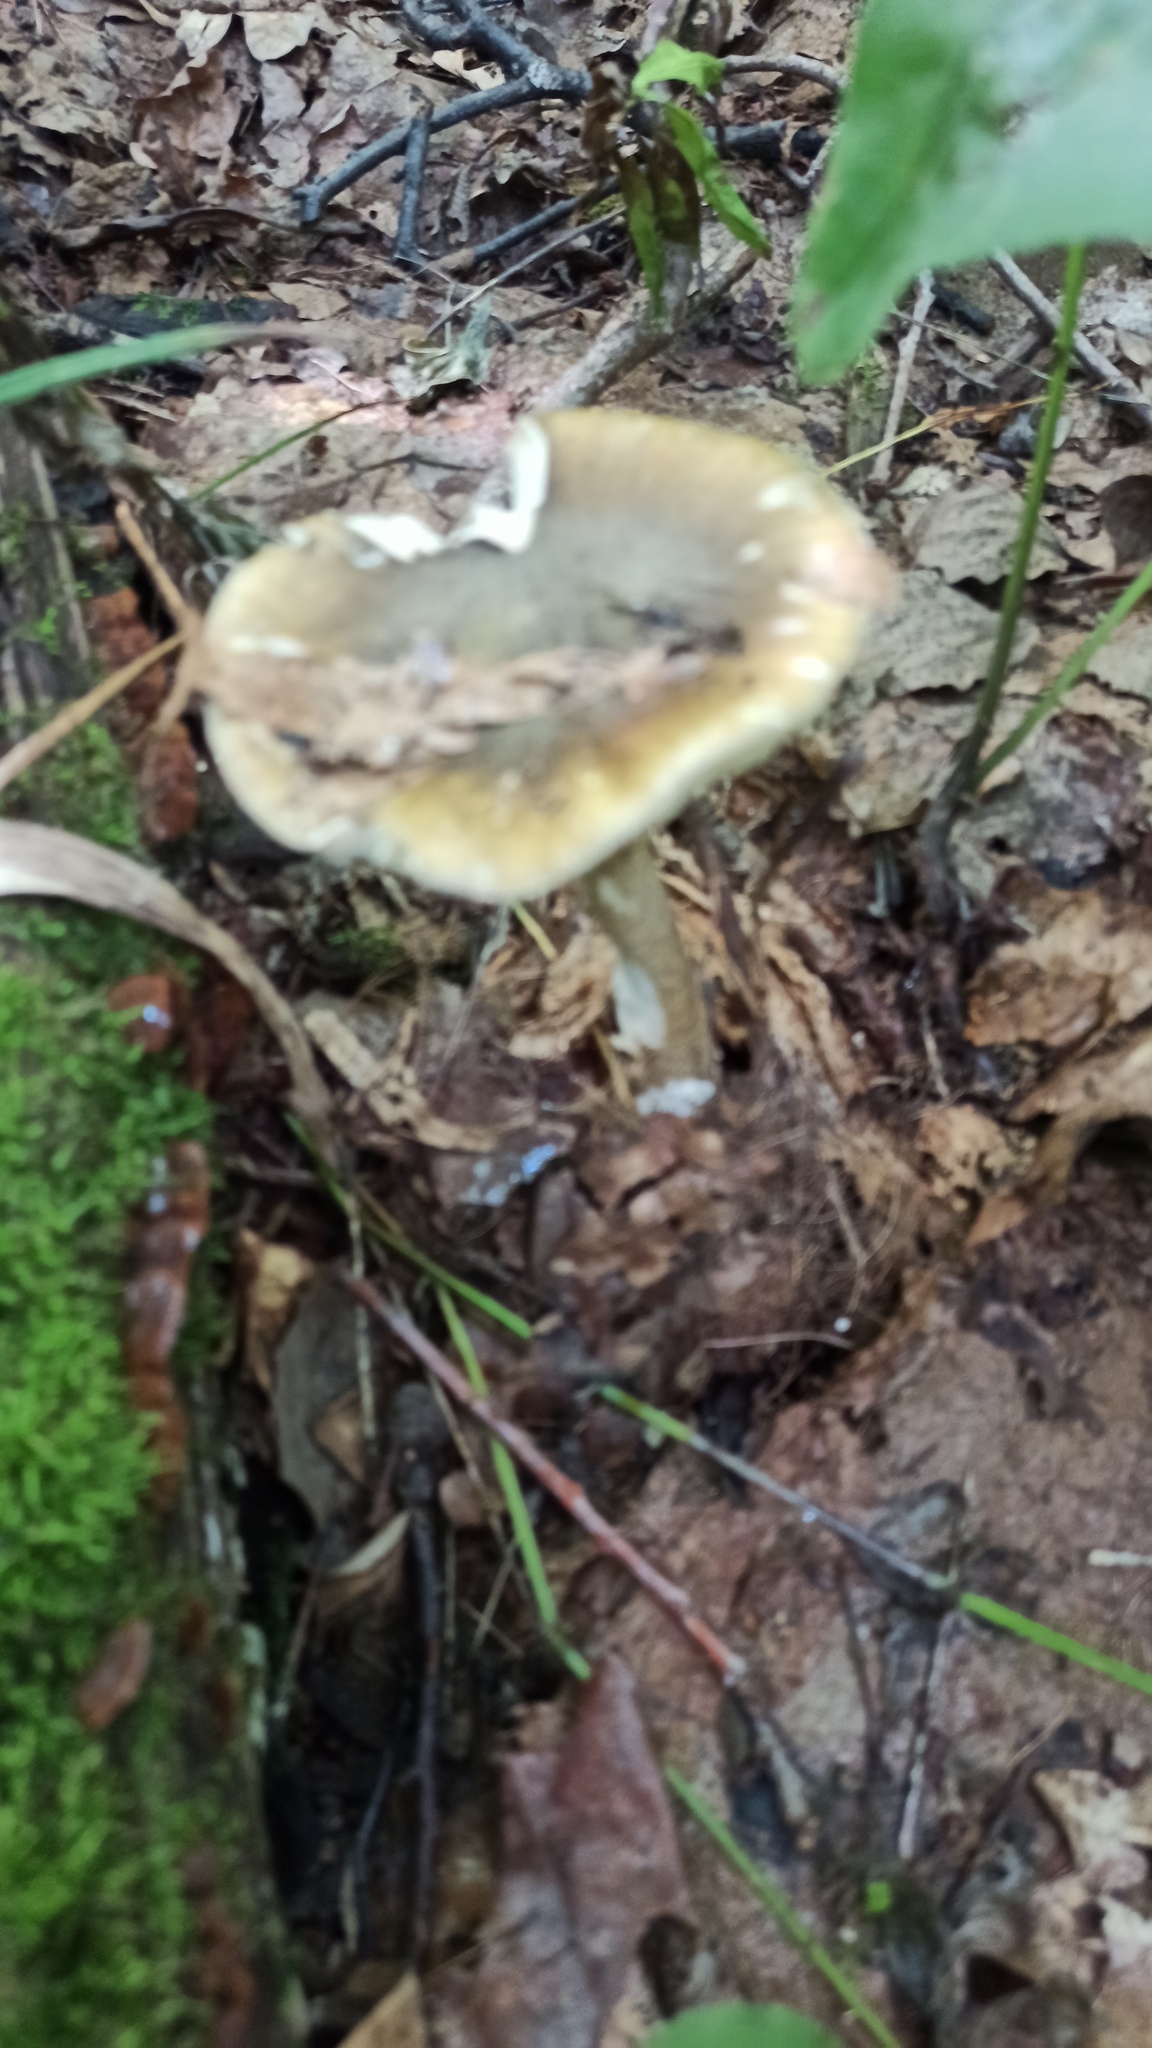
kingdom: Fungi
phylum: Basidiomycota
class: Agaricomycetes
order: Agaricales
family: Amanitaceae
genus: Amanita
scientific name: Amanita phalloides
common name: Death cap
